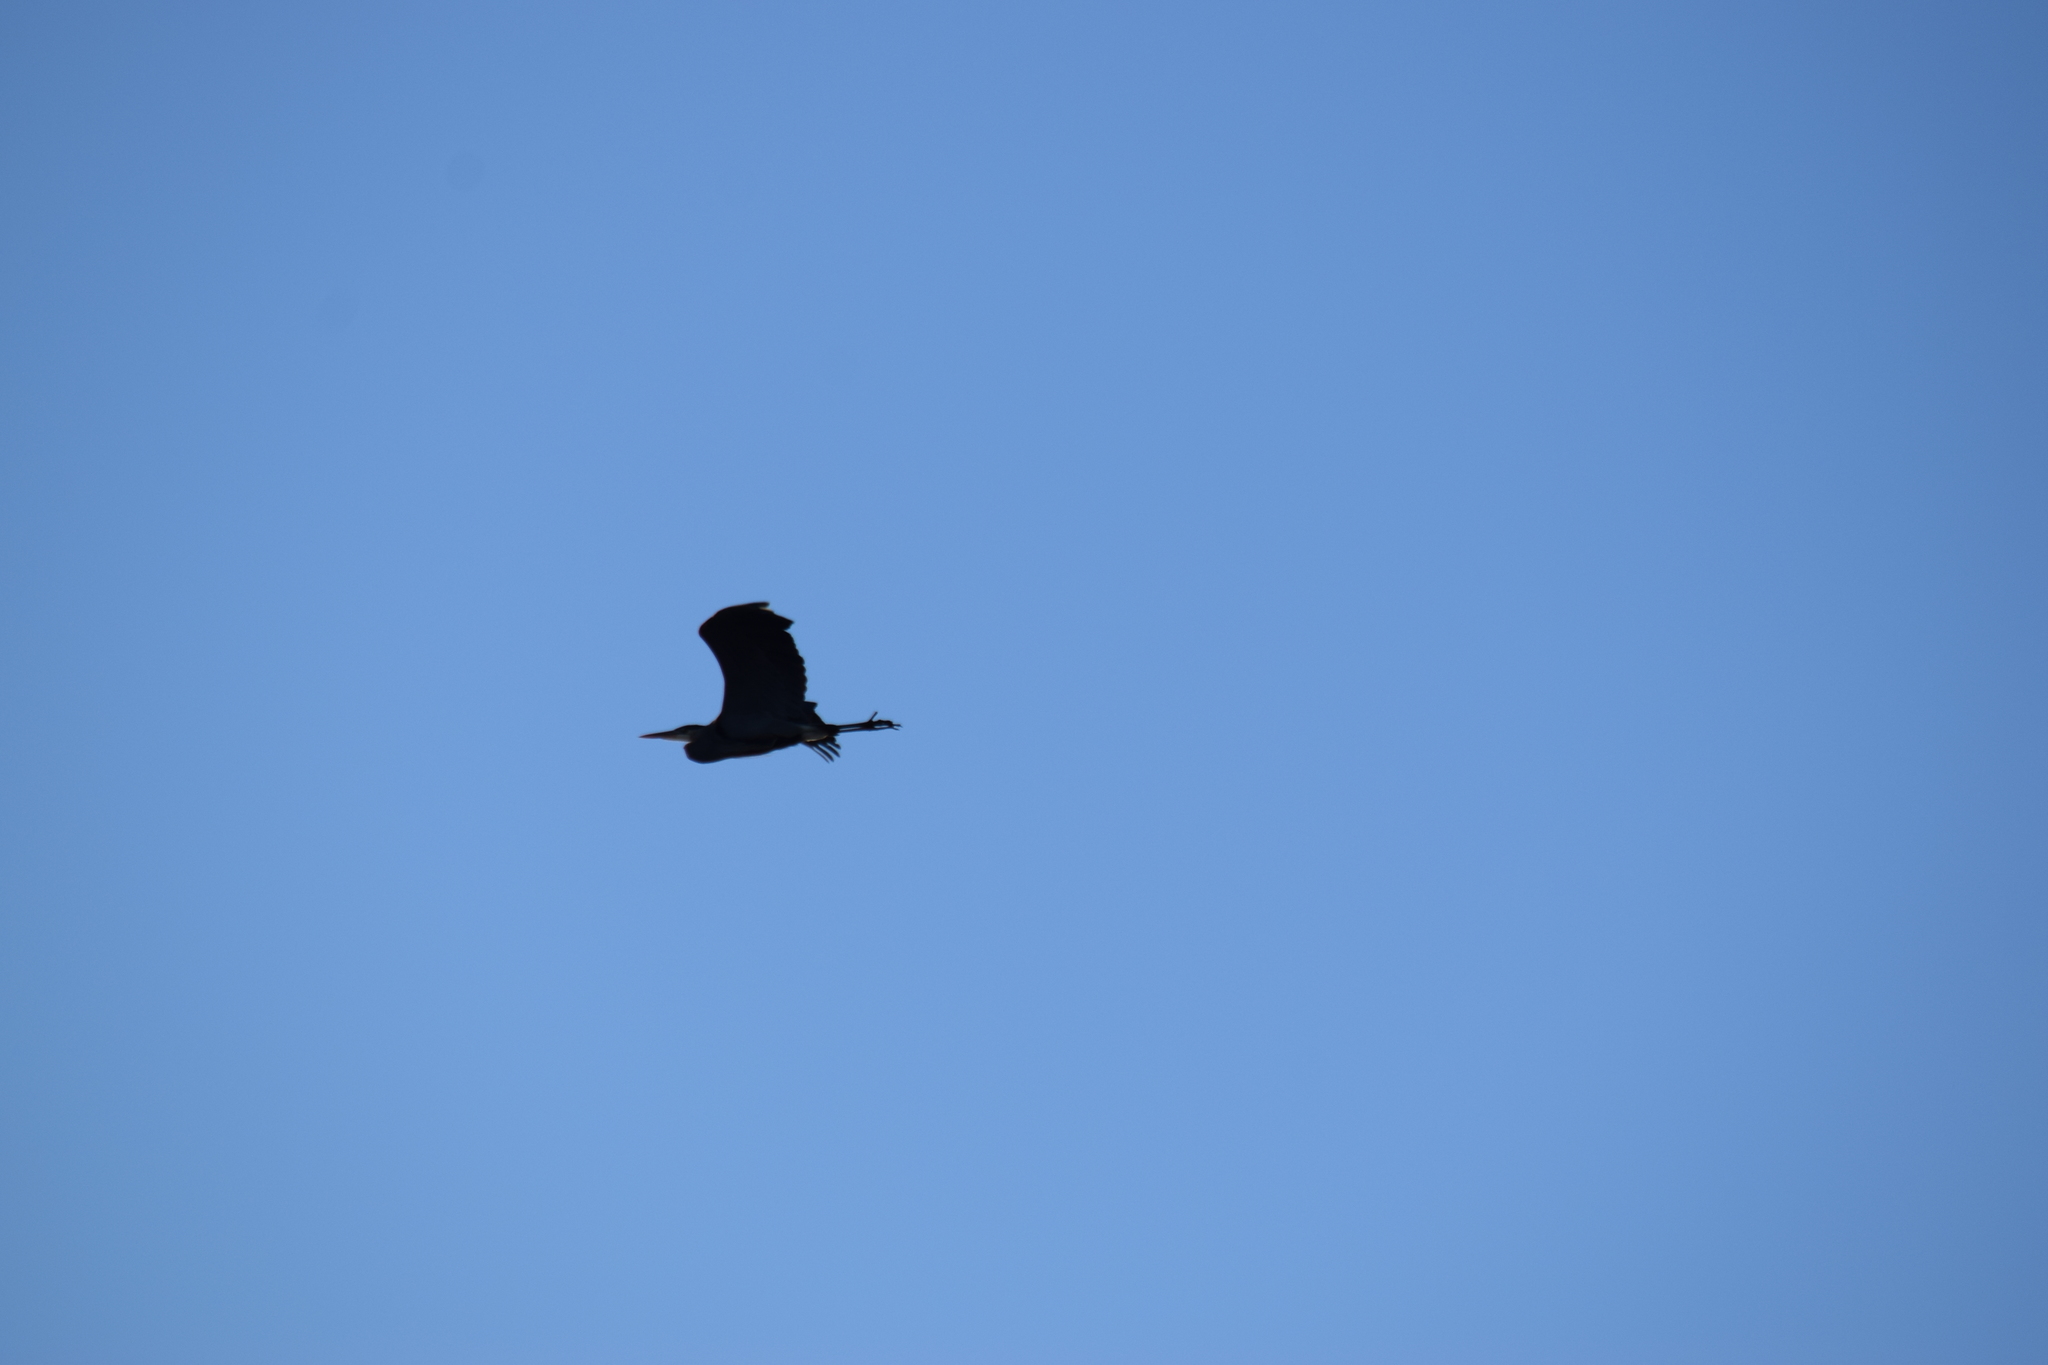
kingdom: Animalia
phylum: Chordata
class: Aves
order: Pelecaniformes
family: Ardeidae
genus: Ardea
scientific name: Ardea herodias
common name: Great blue heron
